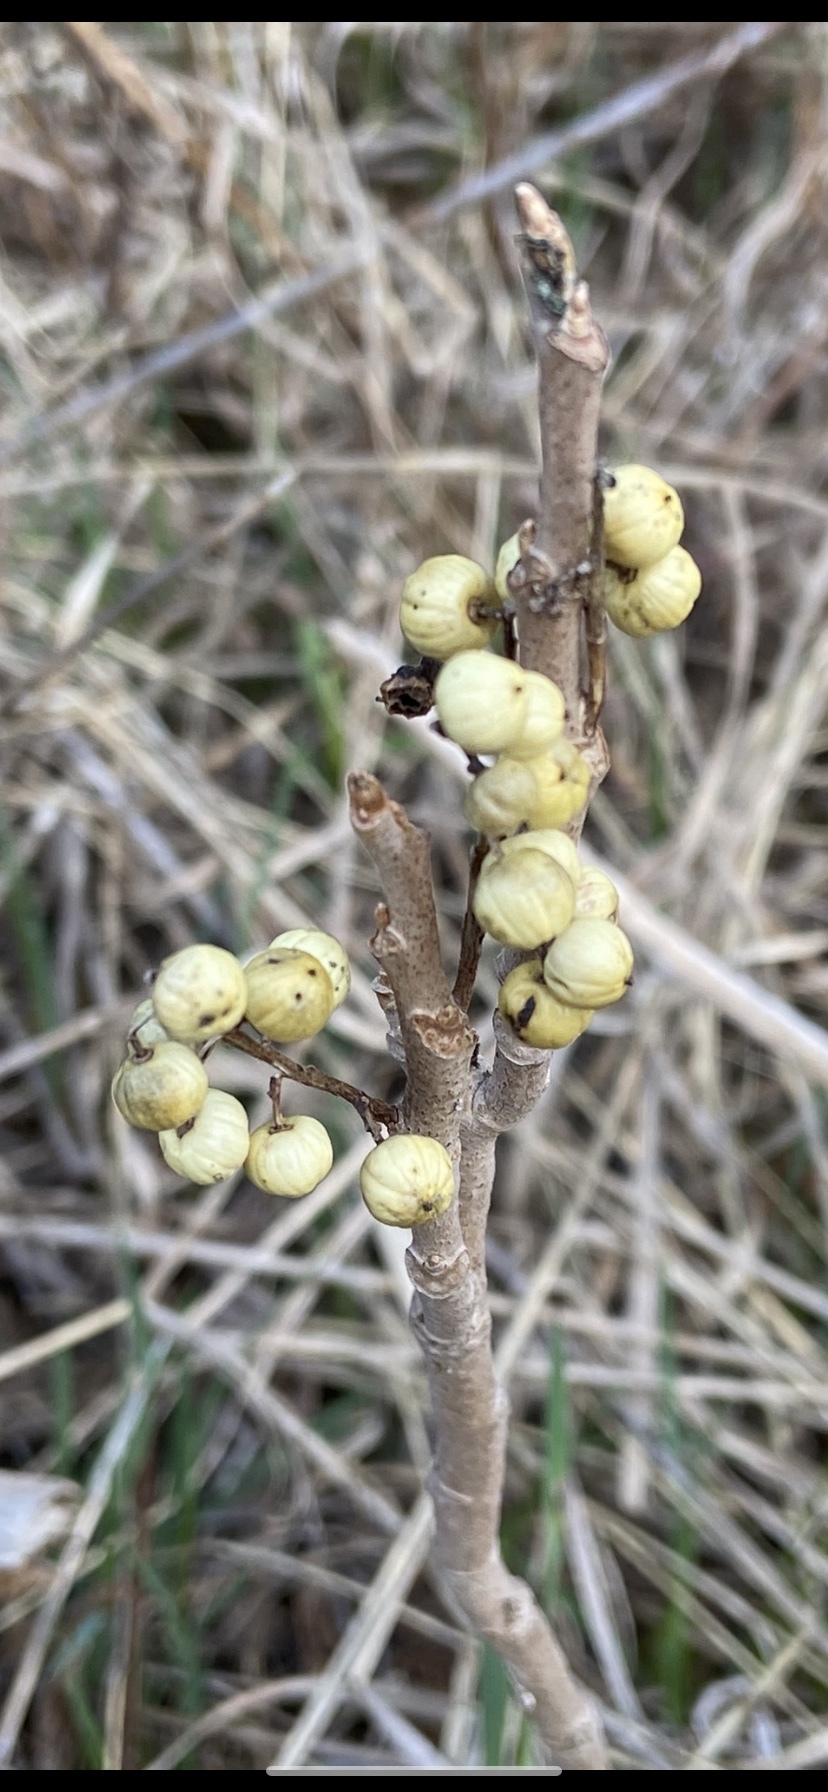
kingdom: Plantae
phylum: Tracheophyta
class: Magnoliopsida
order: Sapindales
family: Anacardiaceae
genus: Toxicodendron
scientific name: Toxicodendron rydbergii
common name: Rydberg's poison-ivy
